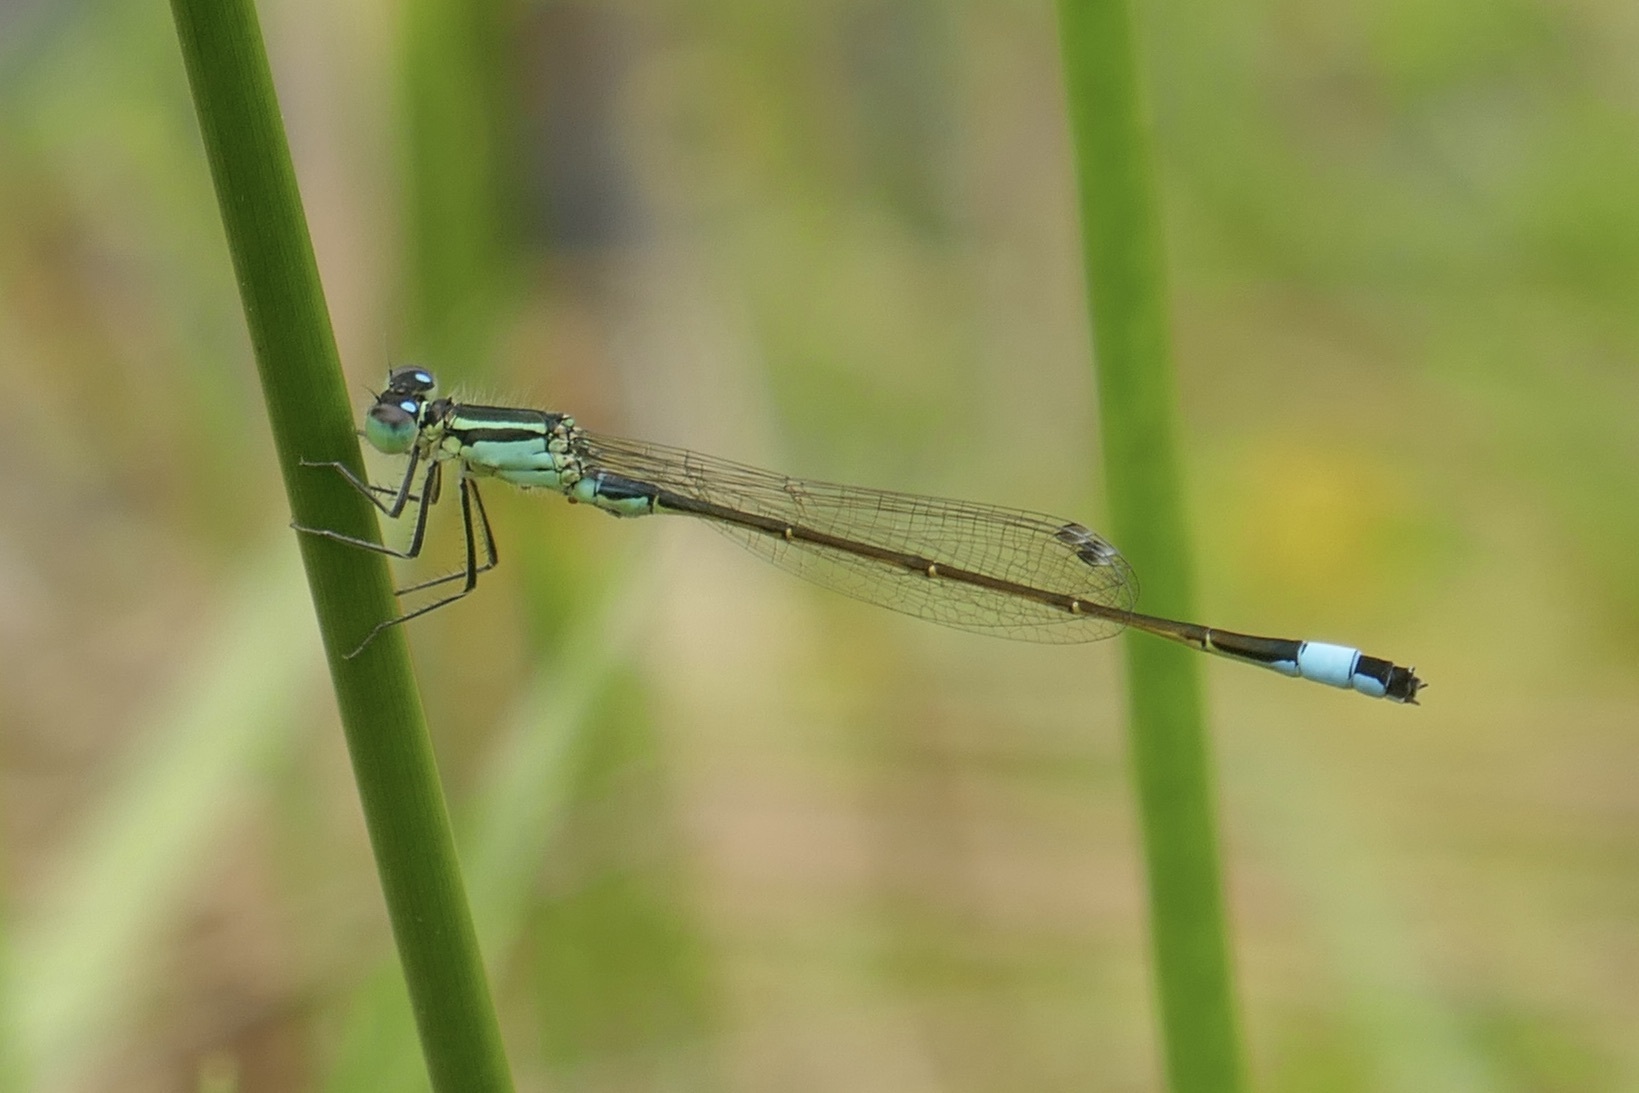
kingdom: Animalia
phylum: Arthropoda
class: Insecta
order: Odonata
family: Coenagrionidae
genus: Ischnura
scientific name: Ischnura elegans
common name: Blue-tailed damselfly
